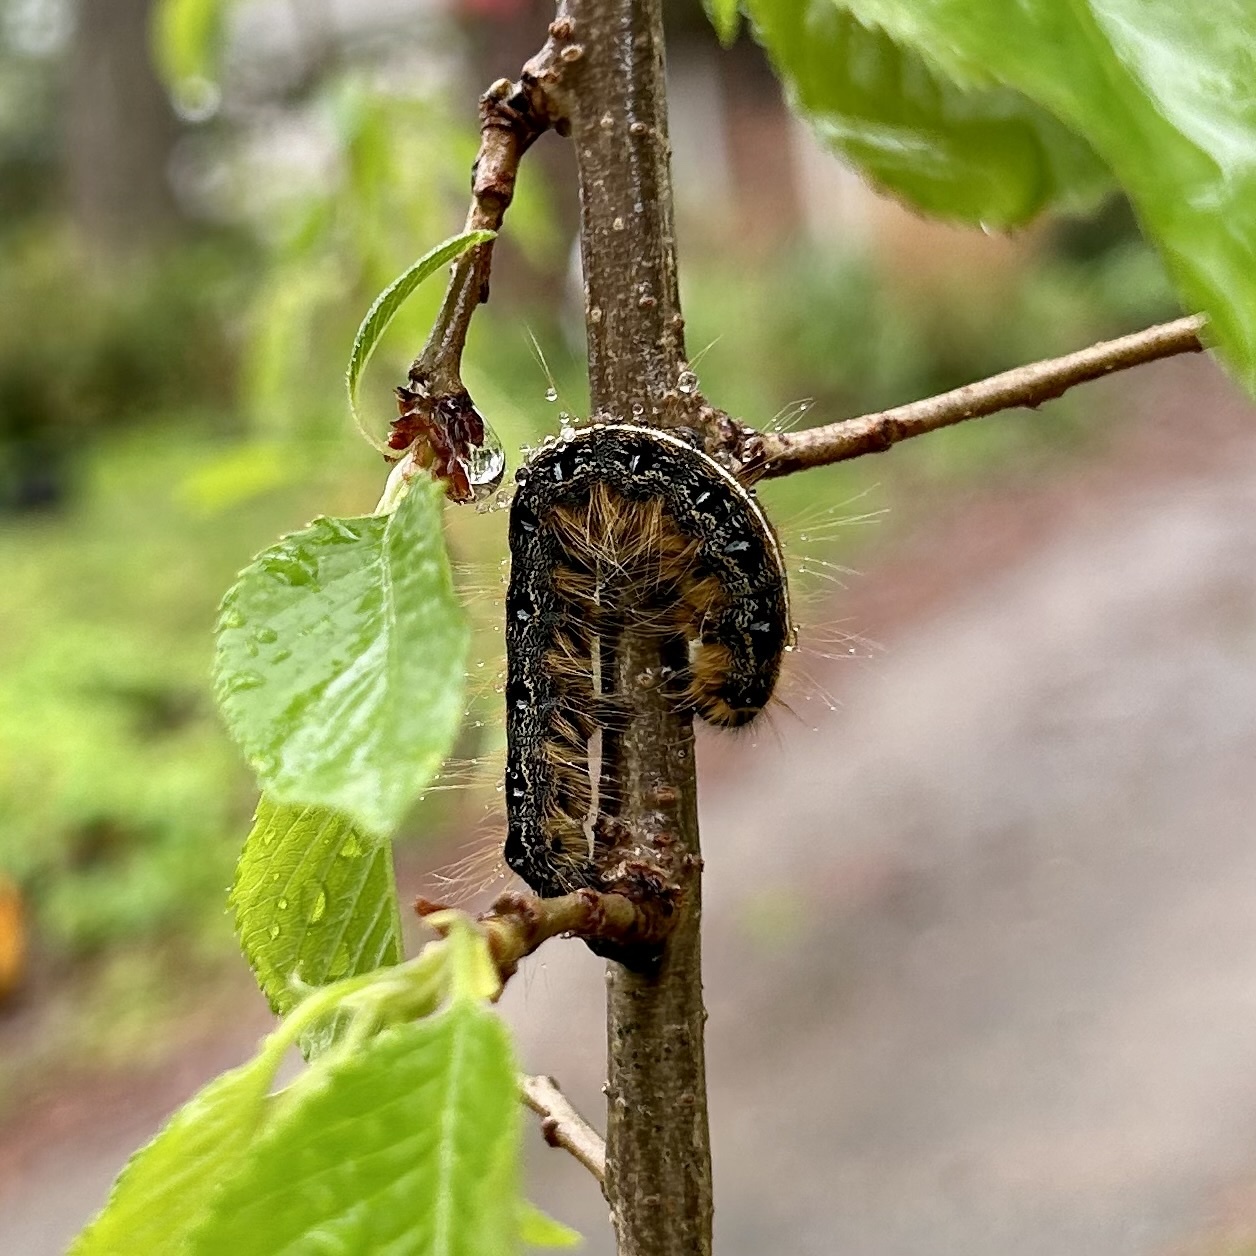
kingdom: Animalia
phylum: Arthropoda
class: Insecta
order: Lepidoptera
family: Lasiocampidae
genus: Malacosoma
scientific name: Malacosoma americana
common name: Eastern tent caterpillar moth
